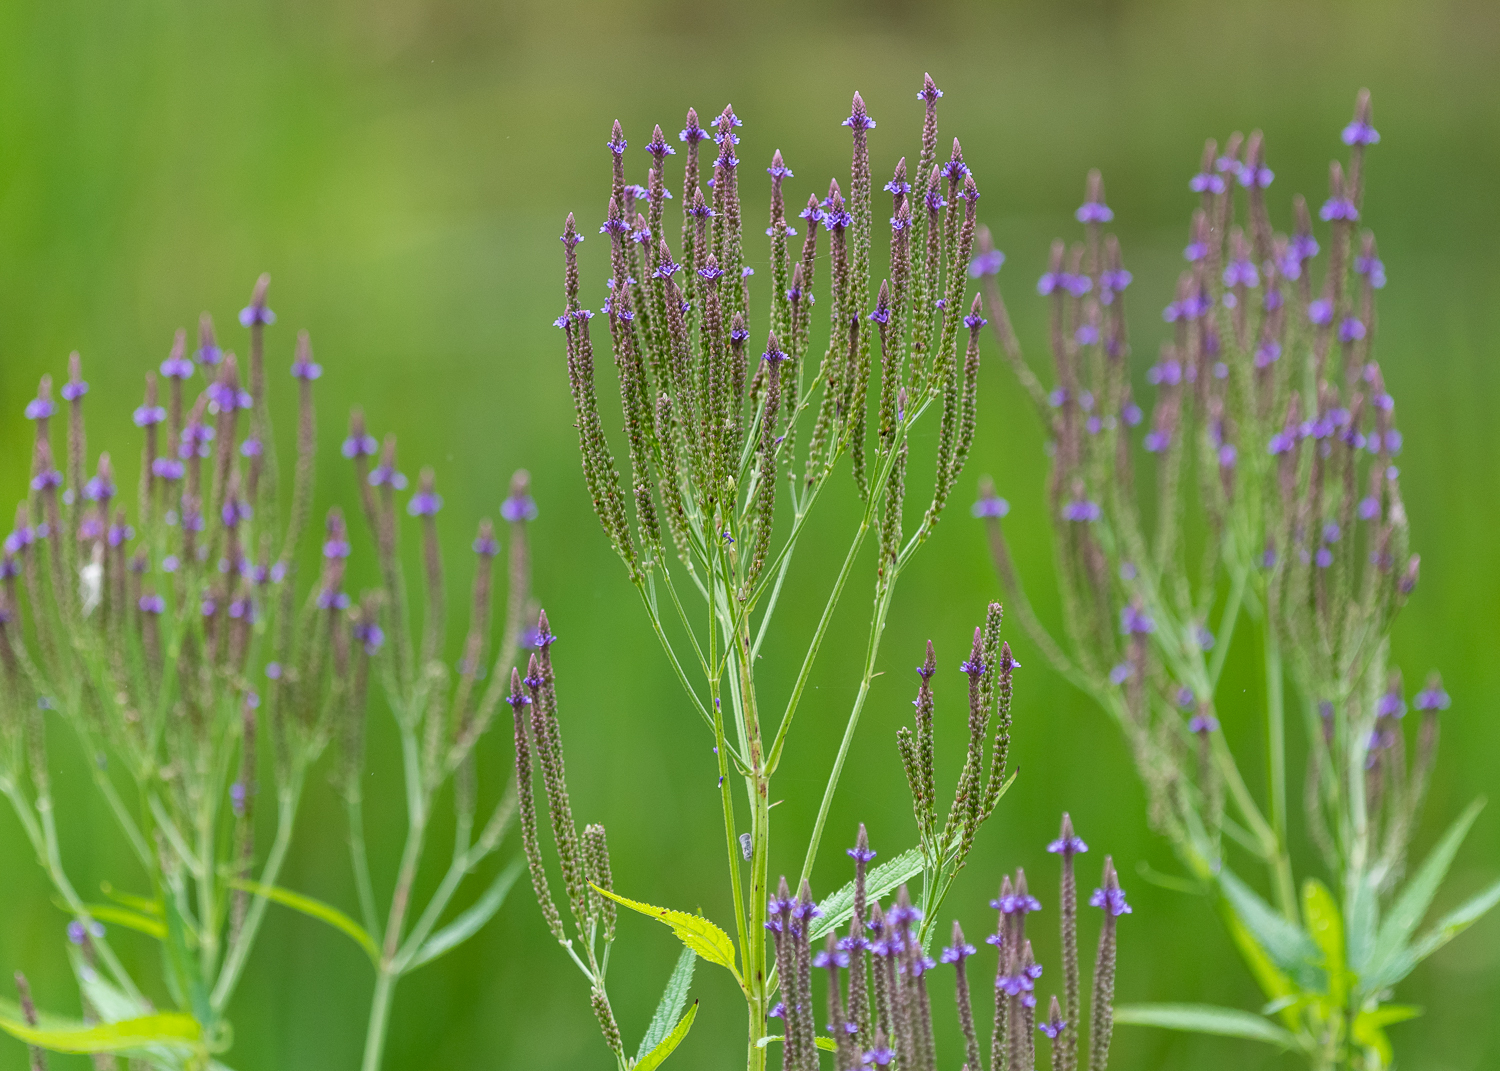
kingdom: Plantae
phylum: Tracheophyta
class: Magnoliopsida
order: Lamiales
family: Verbenaceae
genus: Verbena
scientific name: Verbena hastata
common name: American blue vervain
